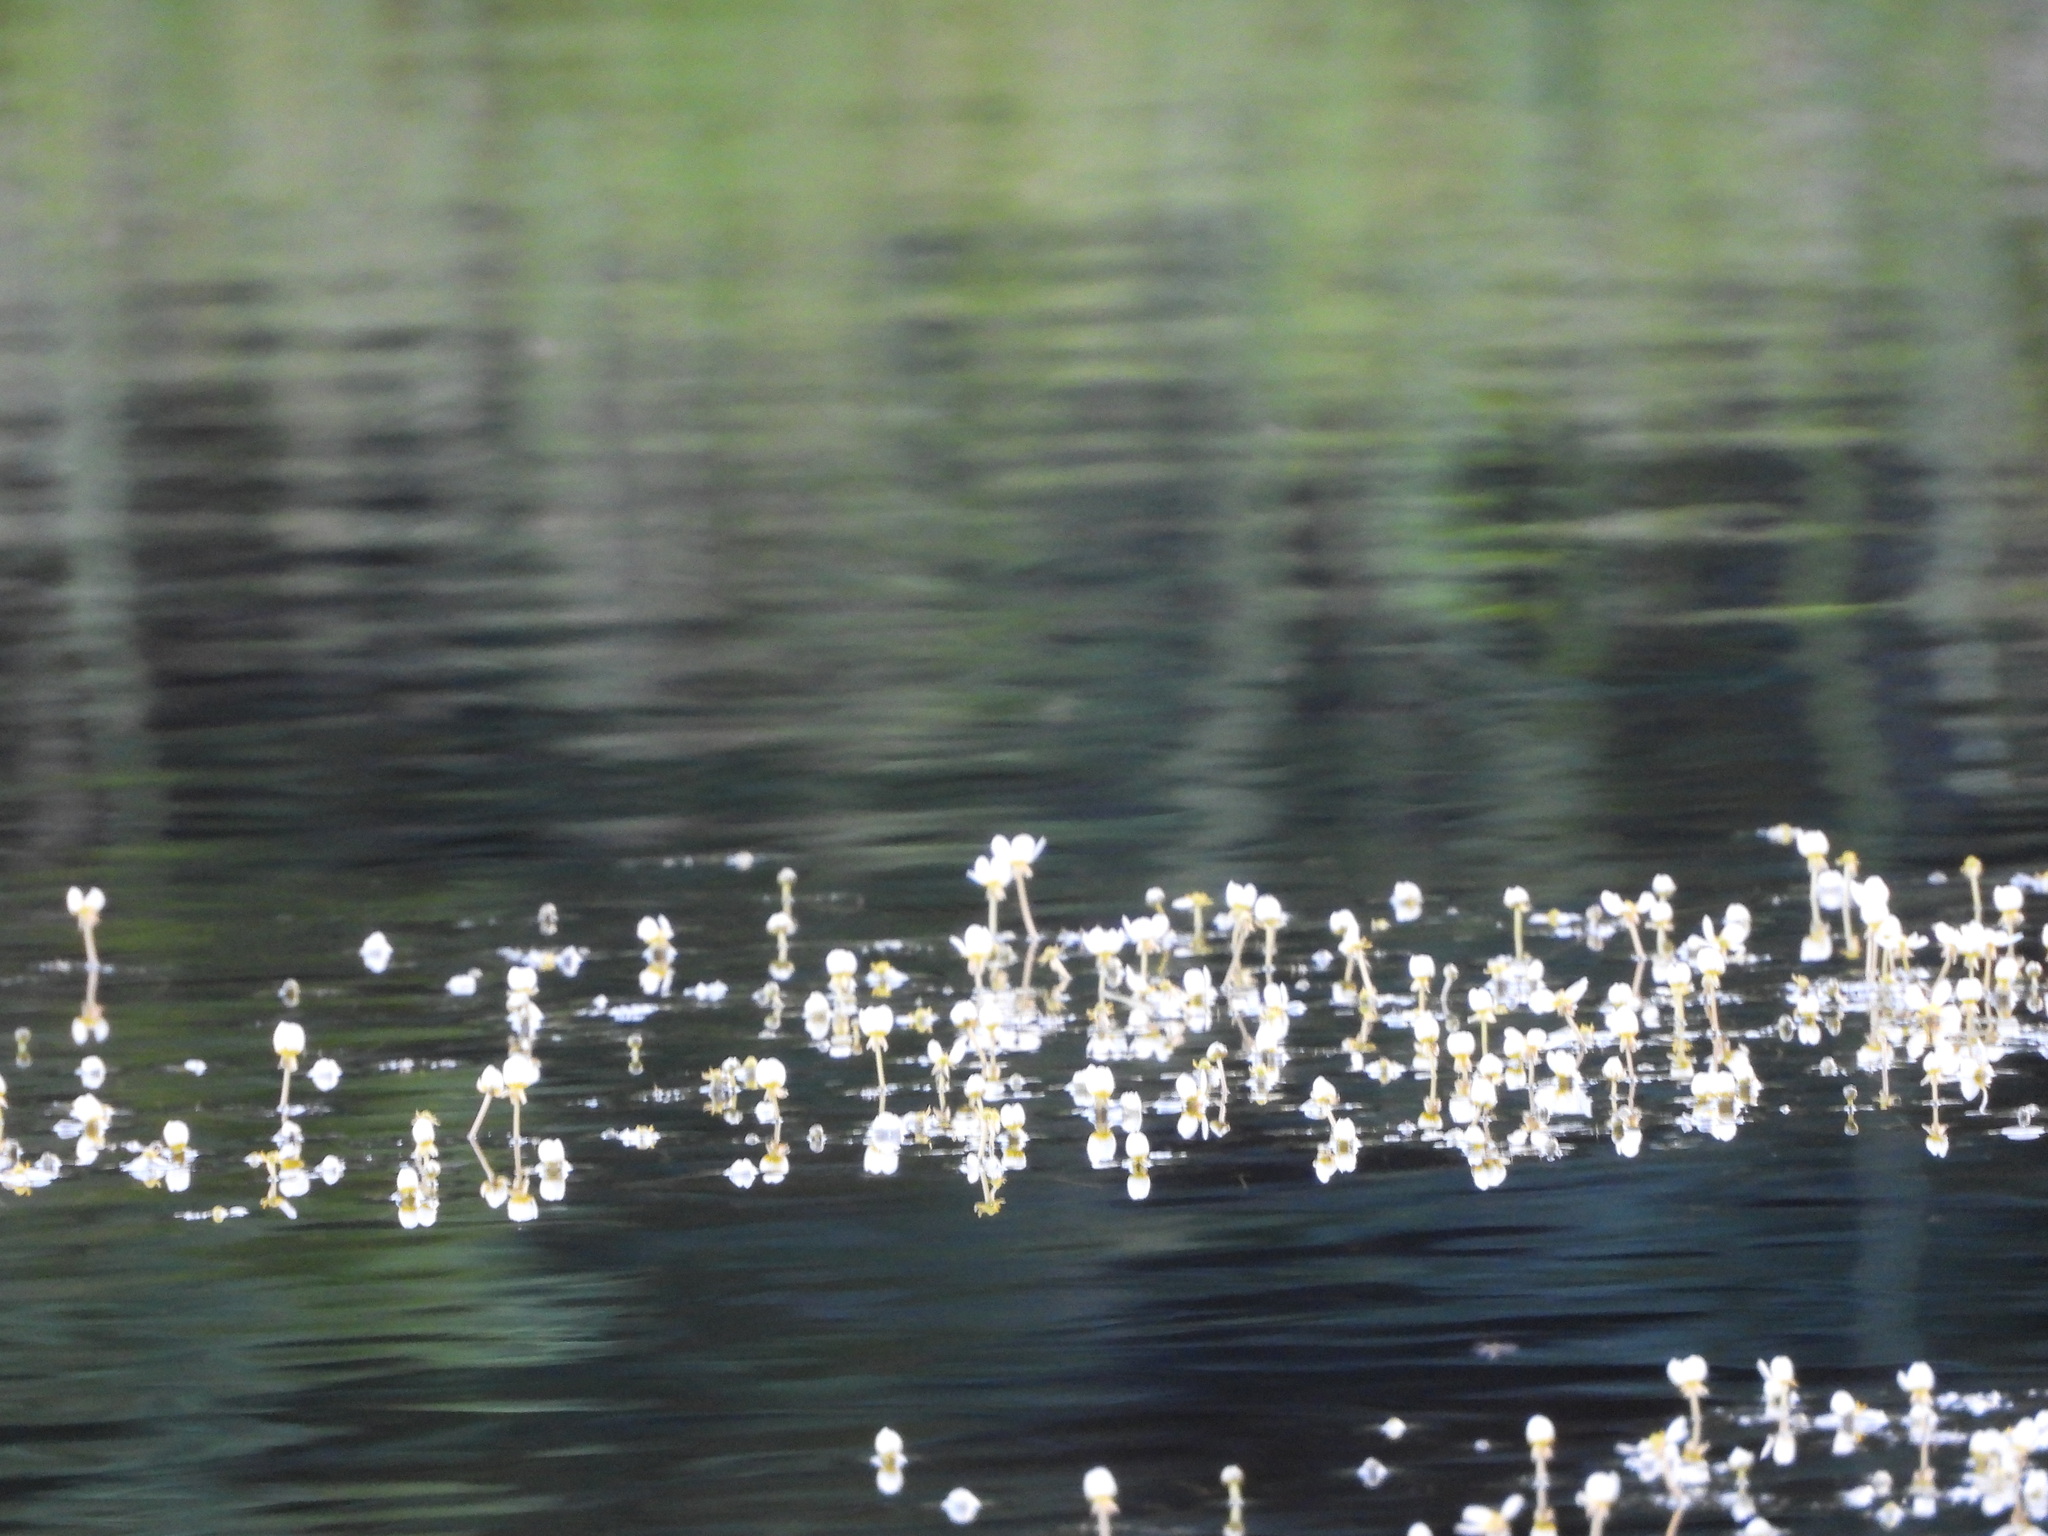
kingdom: Plantae
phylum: Tracheophyta
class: Magnoliopsida
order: Ranunculales
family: Ranunculaceae
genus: Ranunculus
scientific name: Ranunculus aquatilis
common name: Common water-crowfoot
